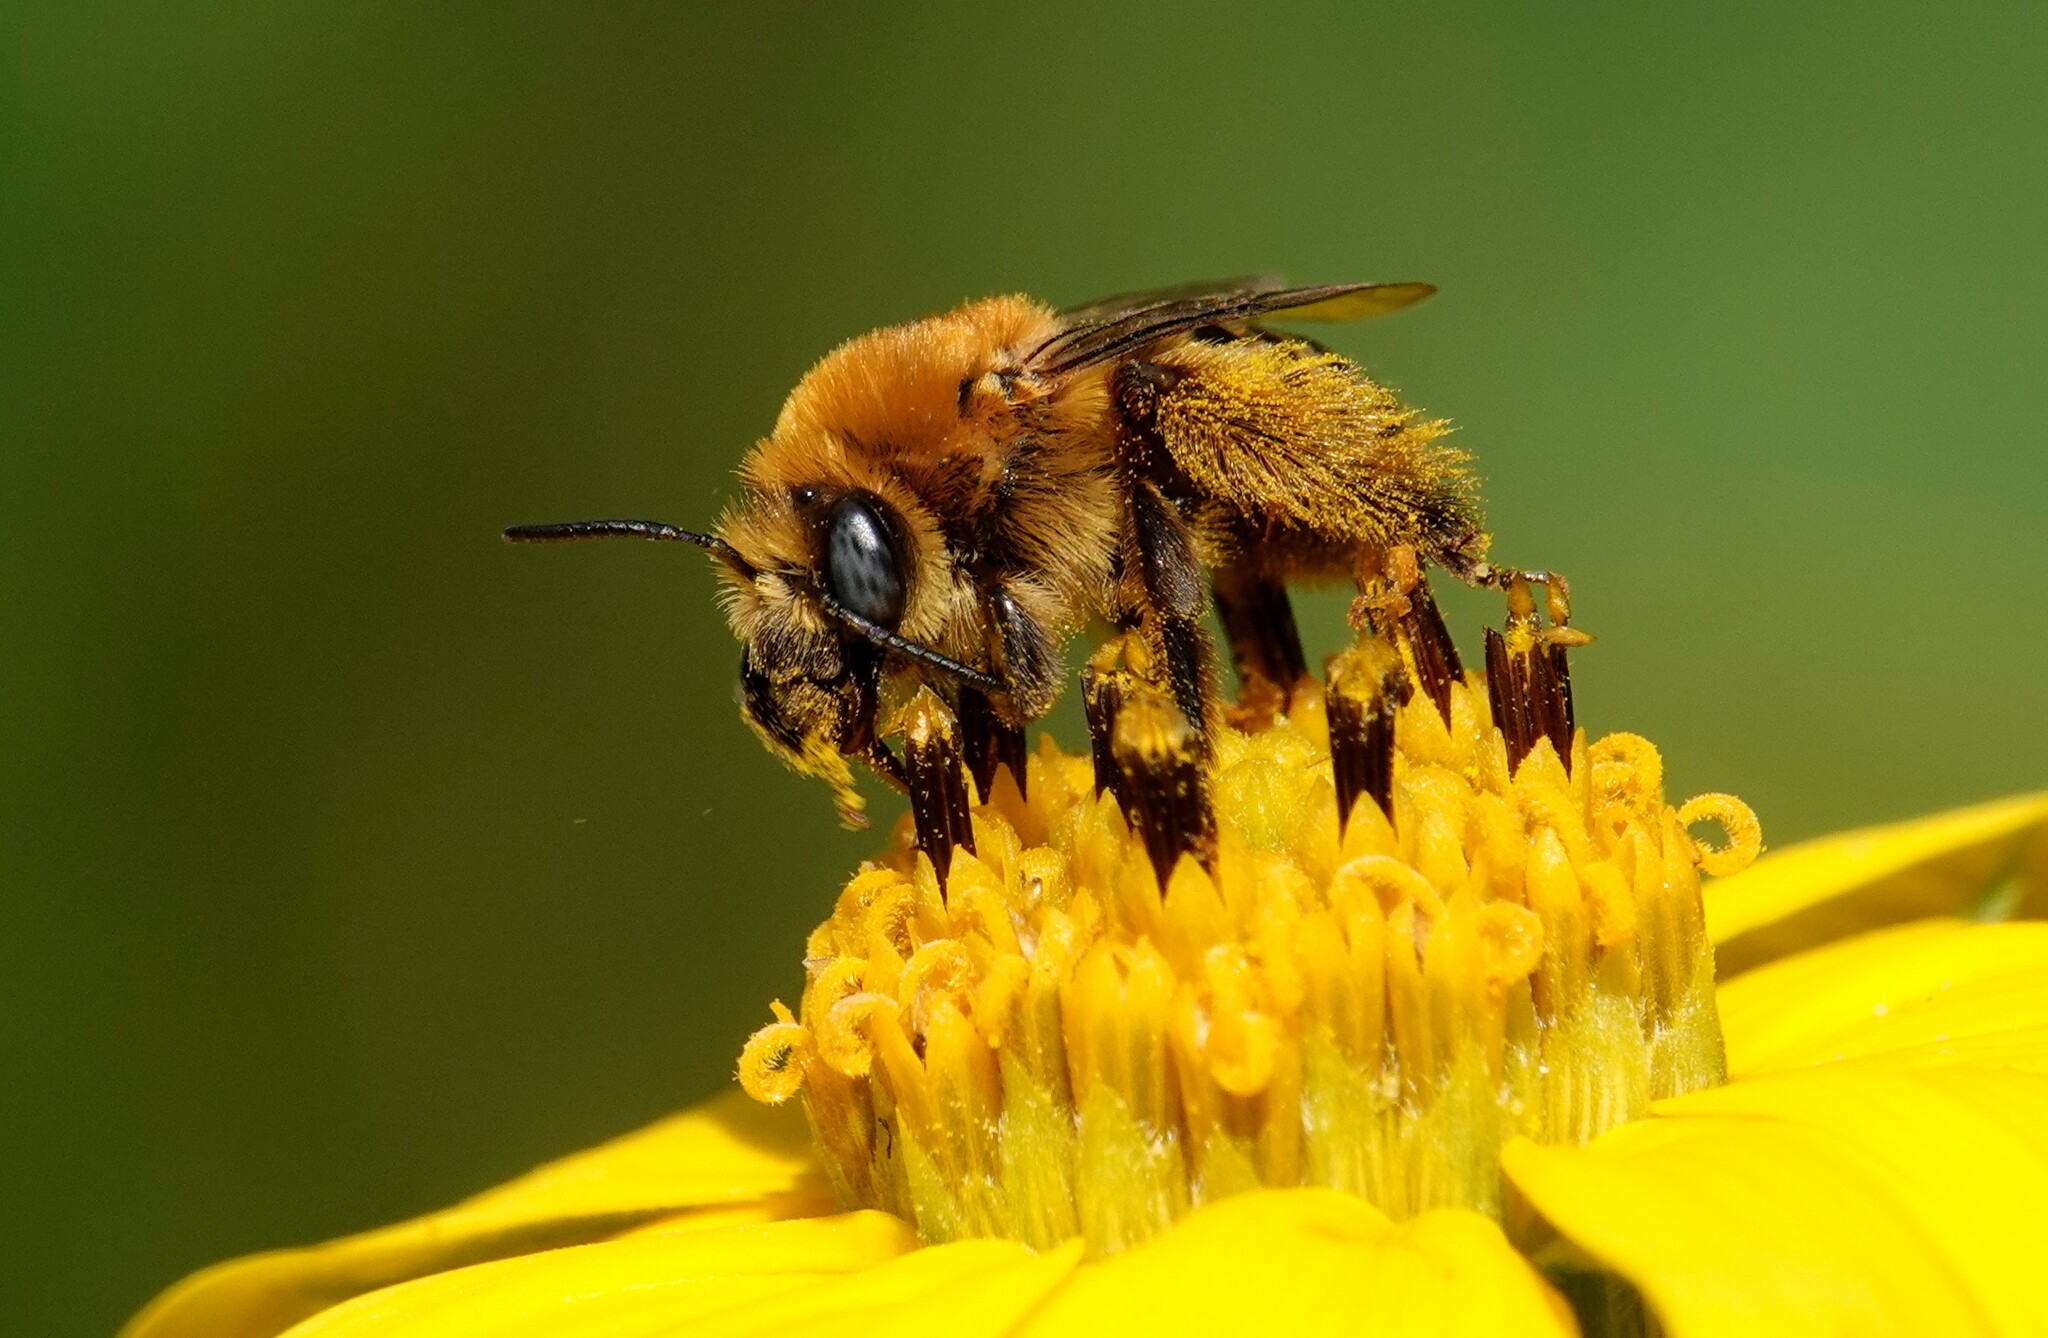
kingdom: Animalia
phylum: Arthropoda
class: Insecta
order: Hymenoptera
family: Apidae
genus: Melissodes
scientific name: Melissodes trinodis
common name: Dark-veined longhorn
